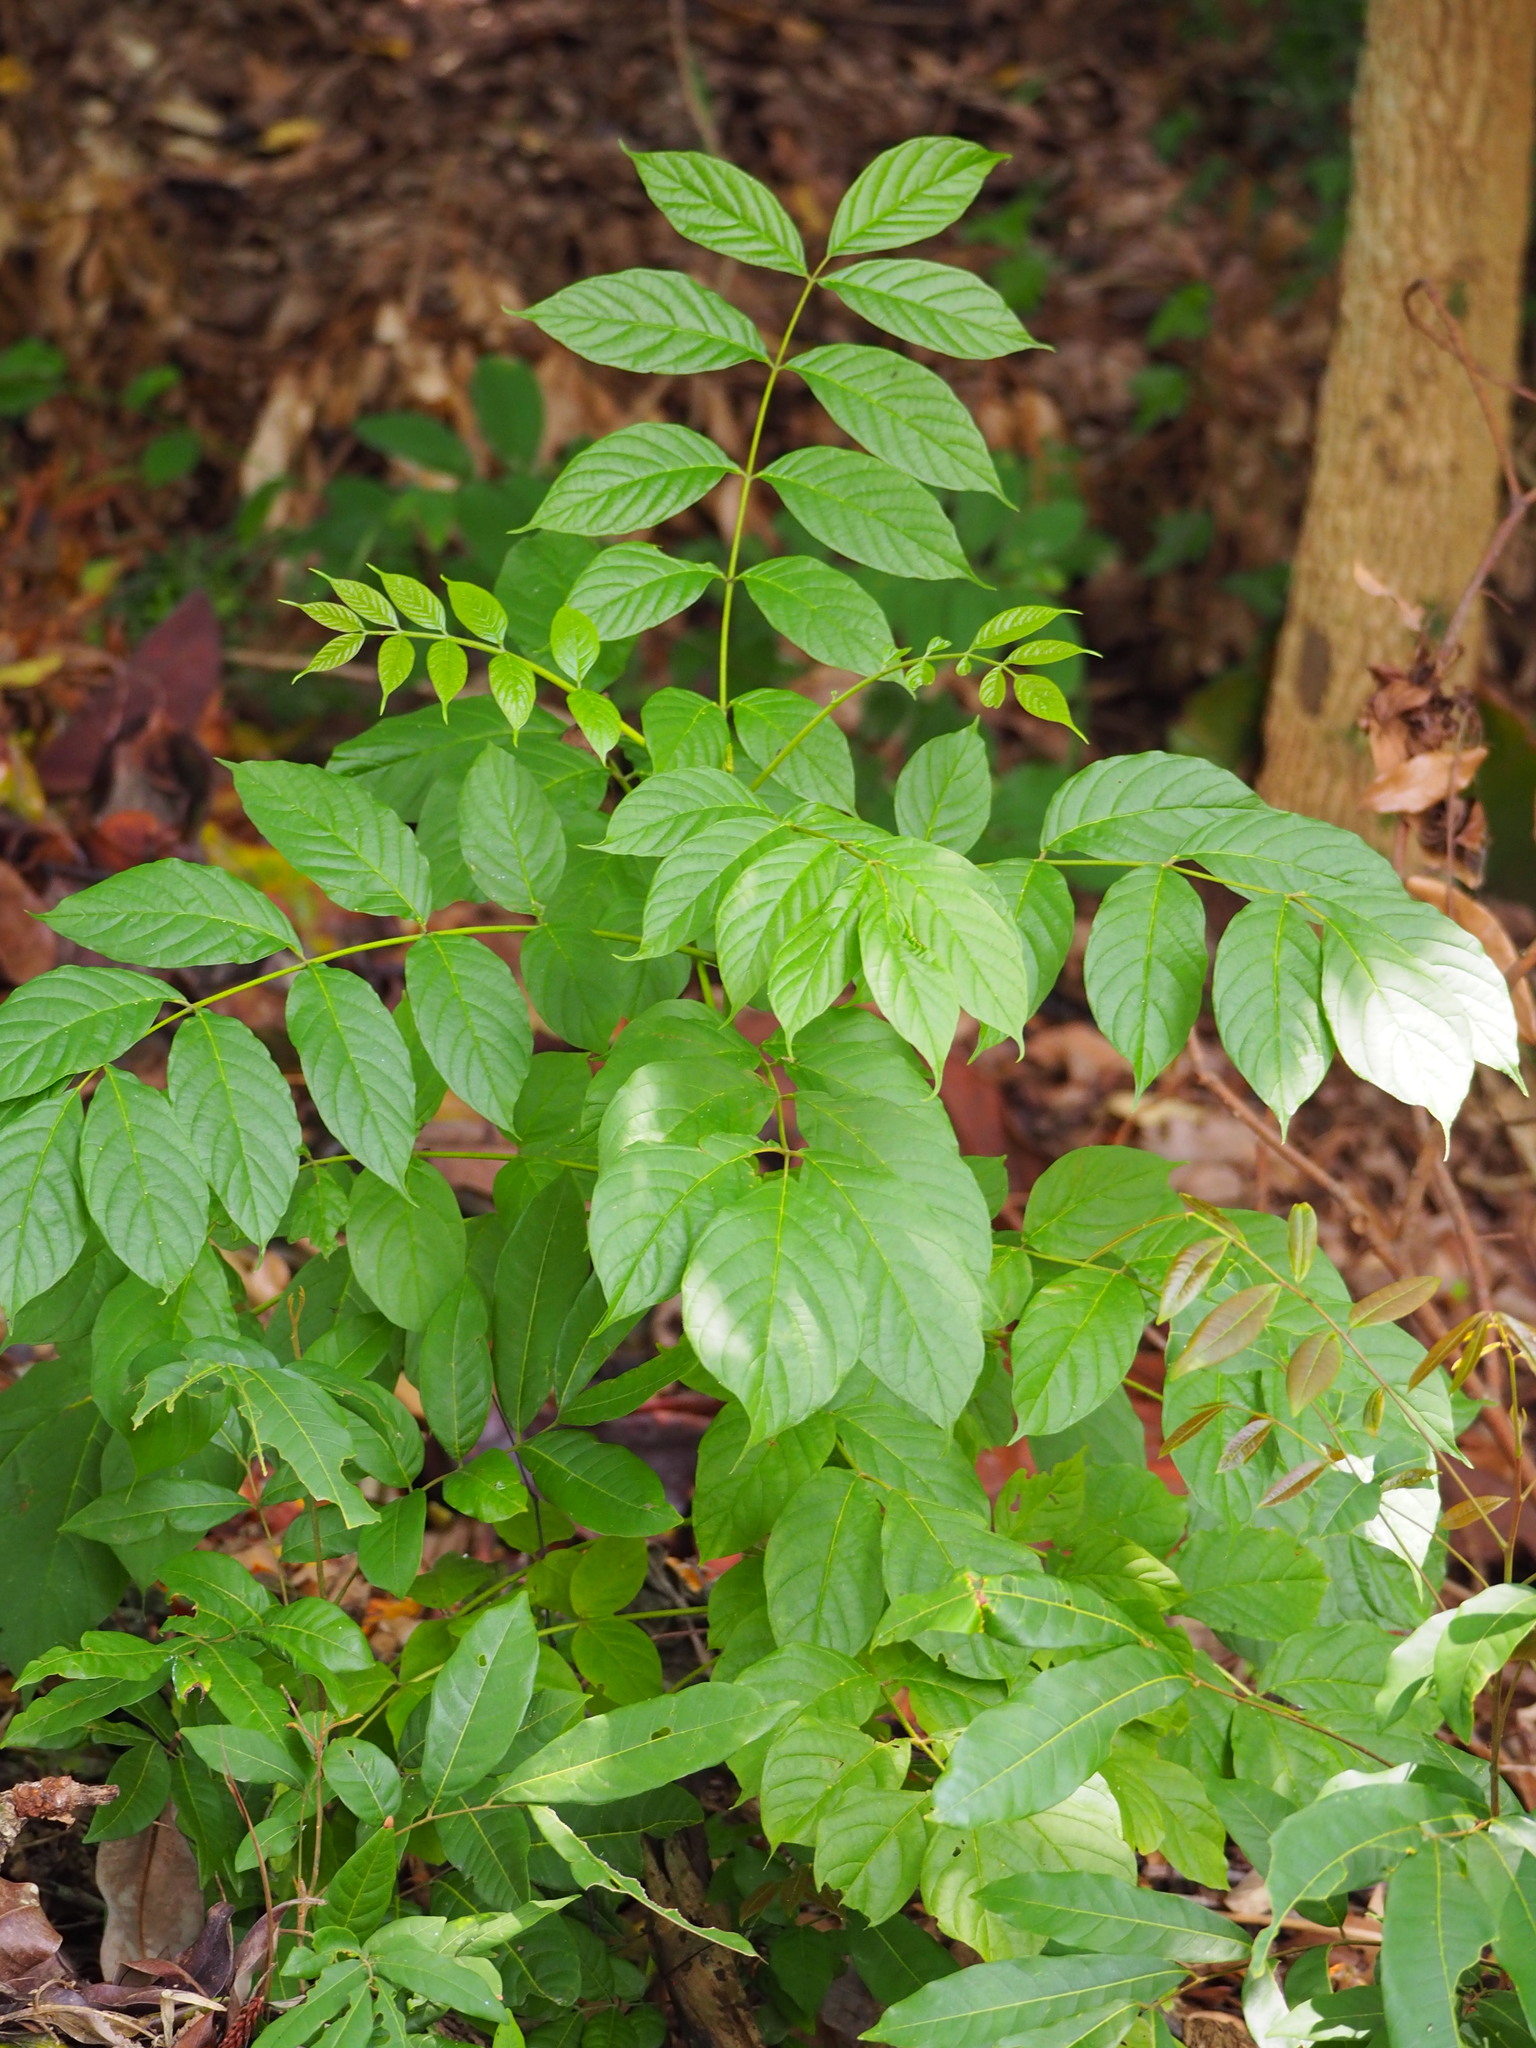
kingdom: Plantae
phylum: Tracheophyta
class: Magnoliopsida
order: Lamiales
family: Bignoniaceae
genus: Spathodea
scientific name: Spathodea campanulata
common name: African tuliptree
